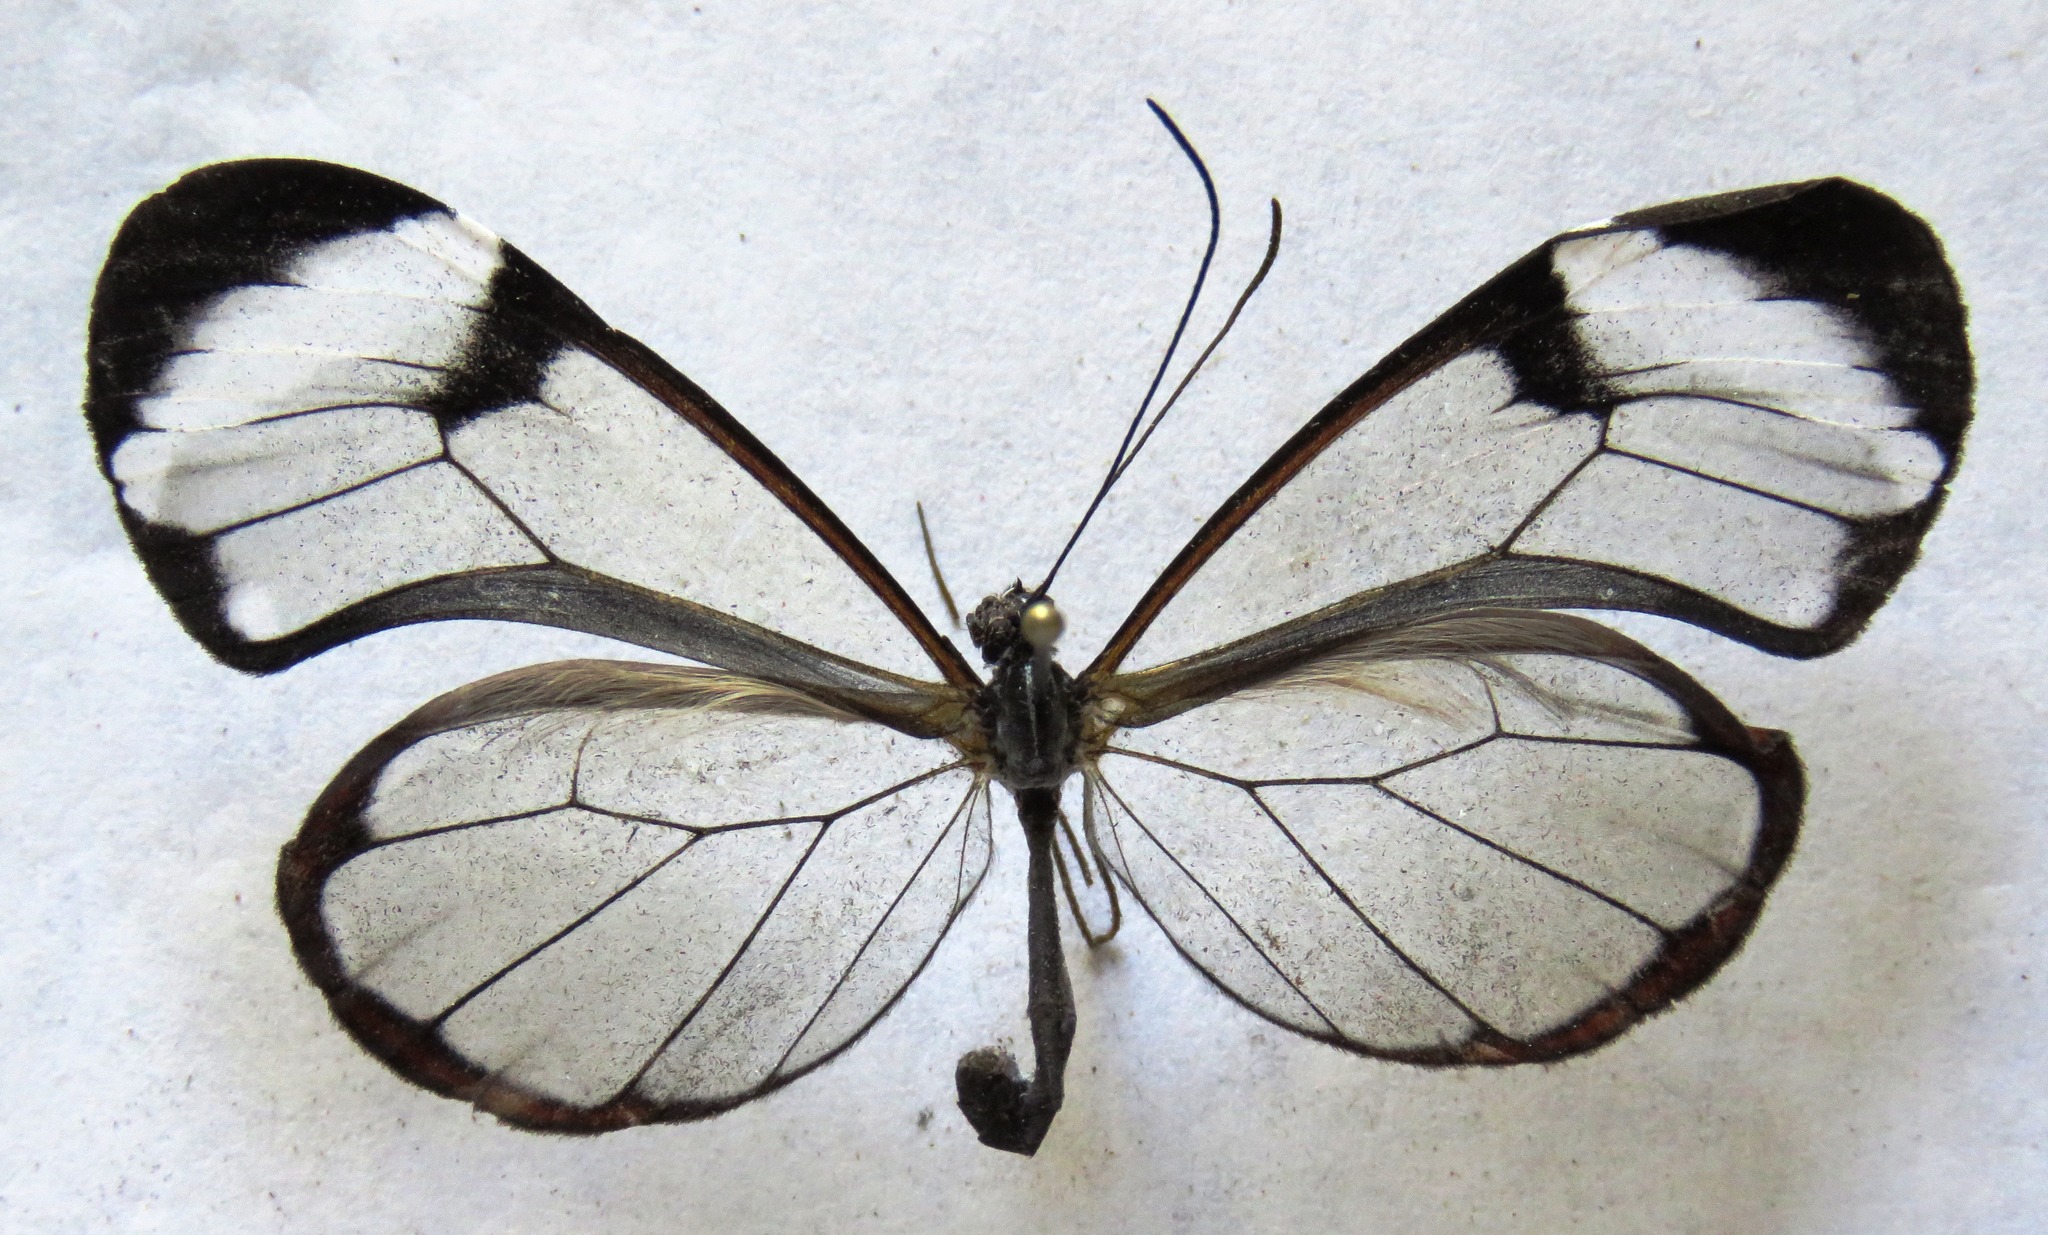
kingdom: Animalia
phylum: Arthropoda
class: Insecta
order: Lepidoptera
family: Nymphalidae
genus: Greta
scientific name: Greta morgane
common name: Thick-tipped greta
